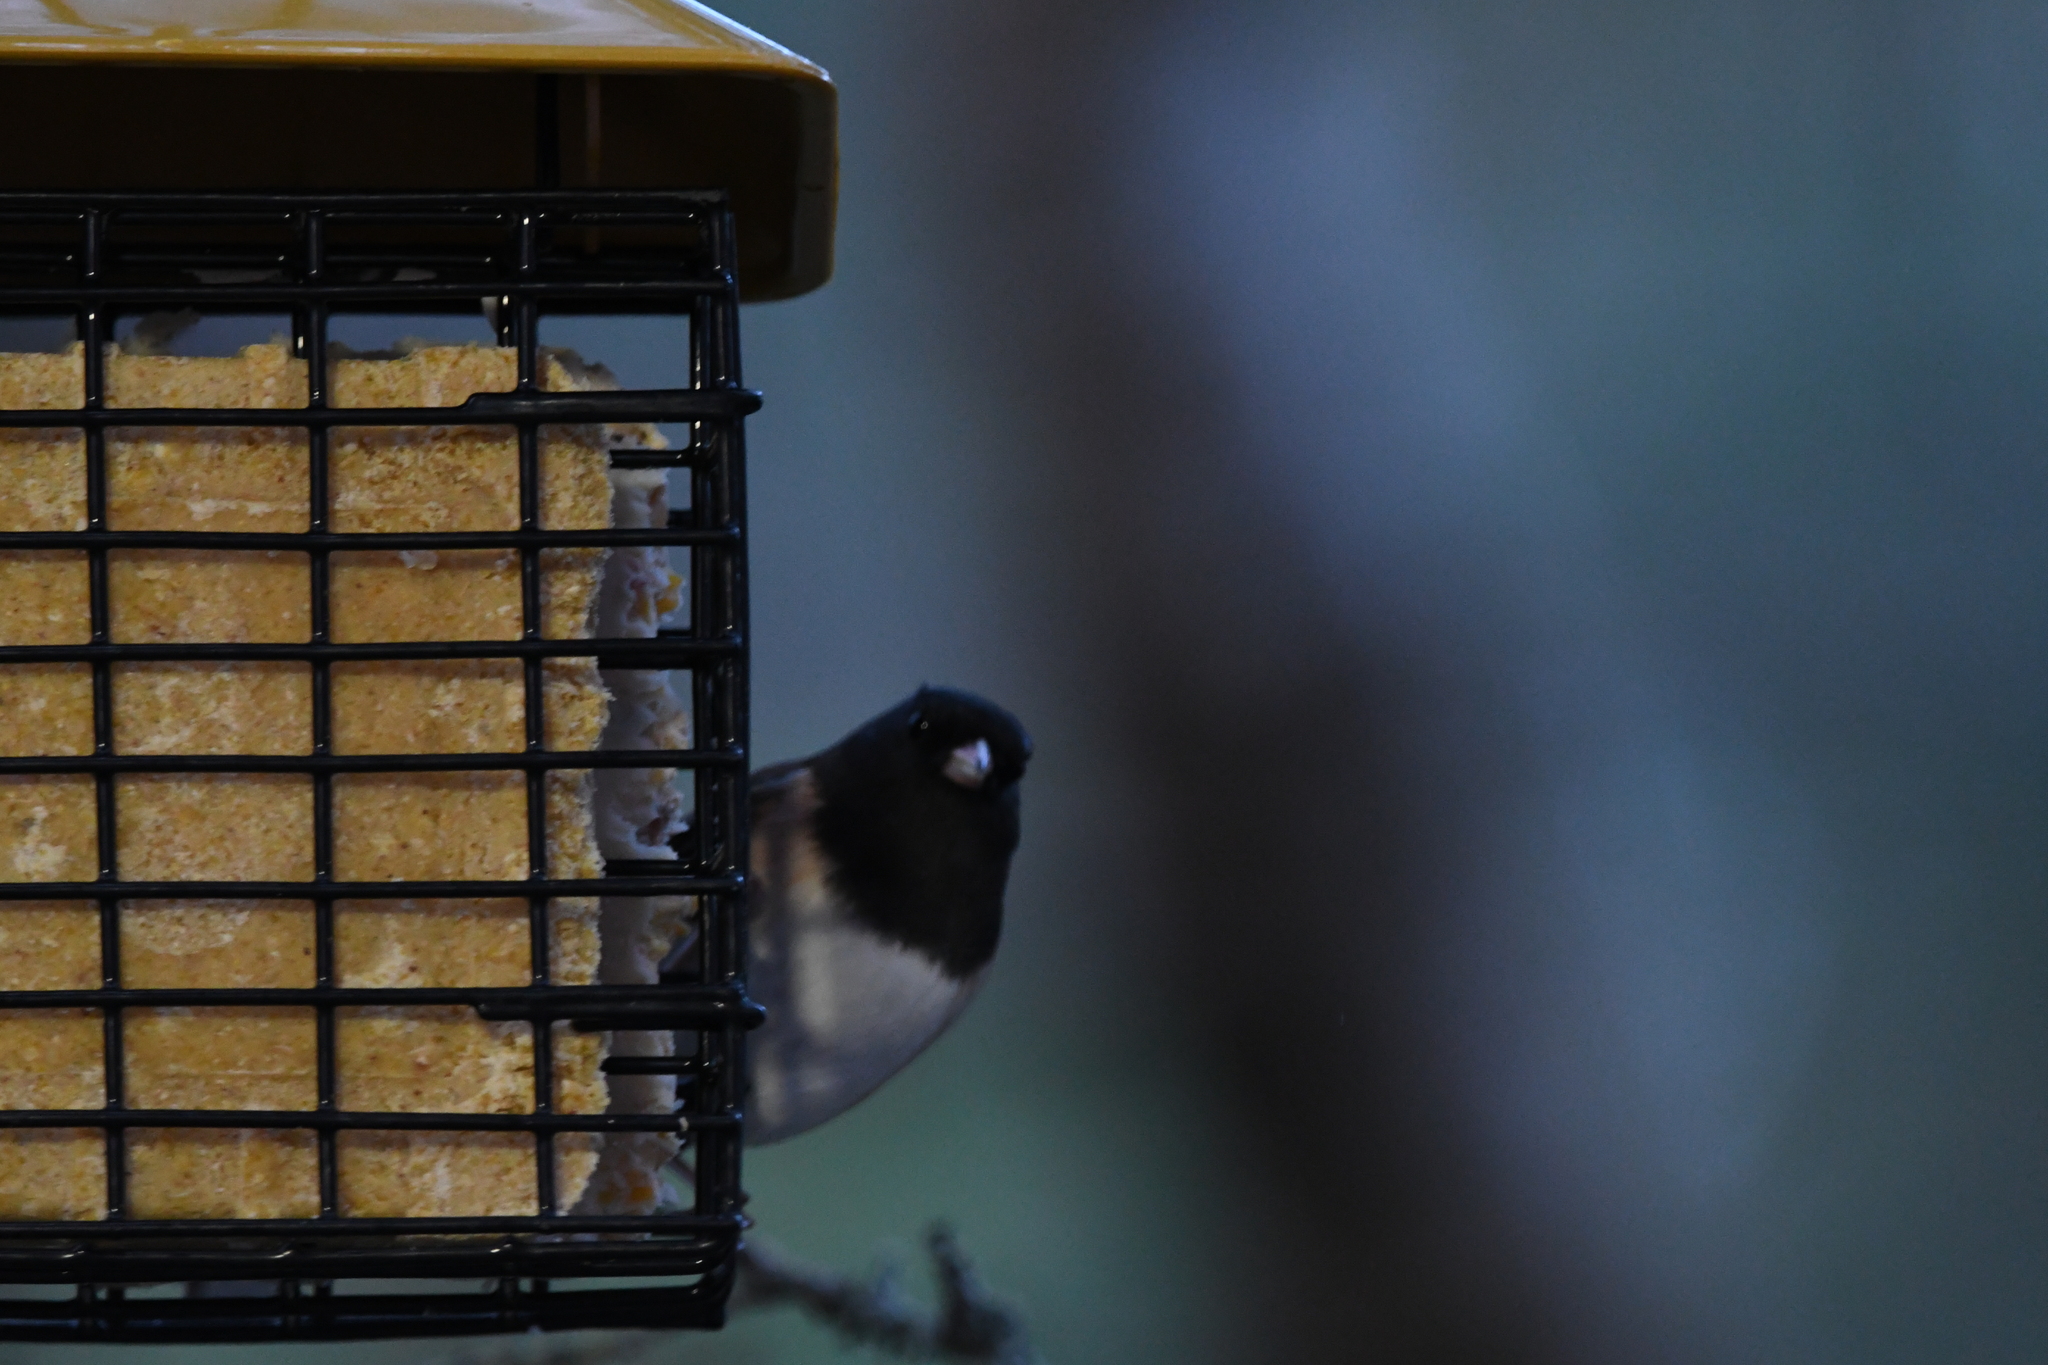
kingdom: Animalia
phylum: Chordata
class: Aves
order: Passeriformes
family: Passerellidae
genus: Junco
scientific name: Junco hyemalis
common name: Dark-eyed junco
